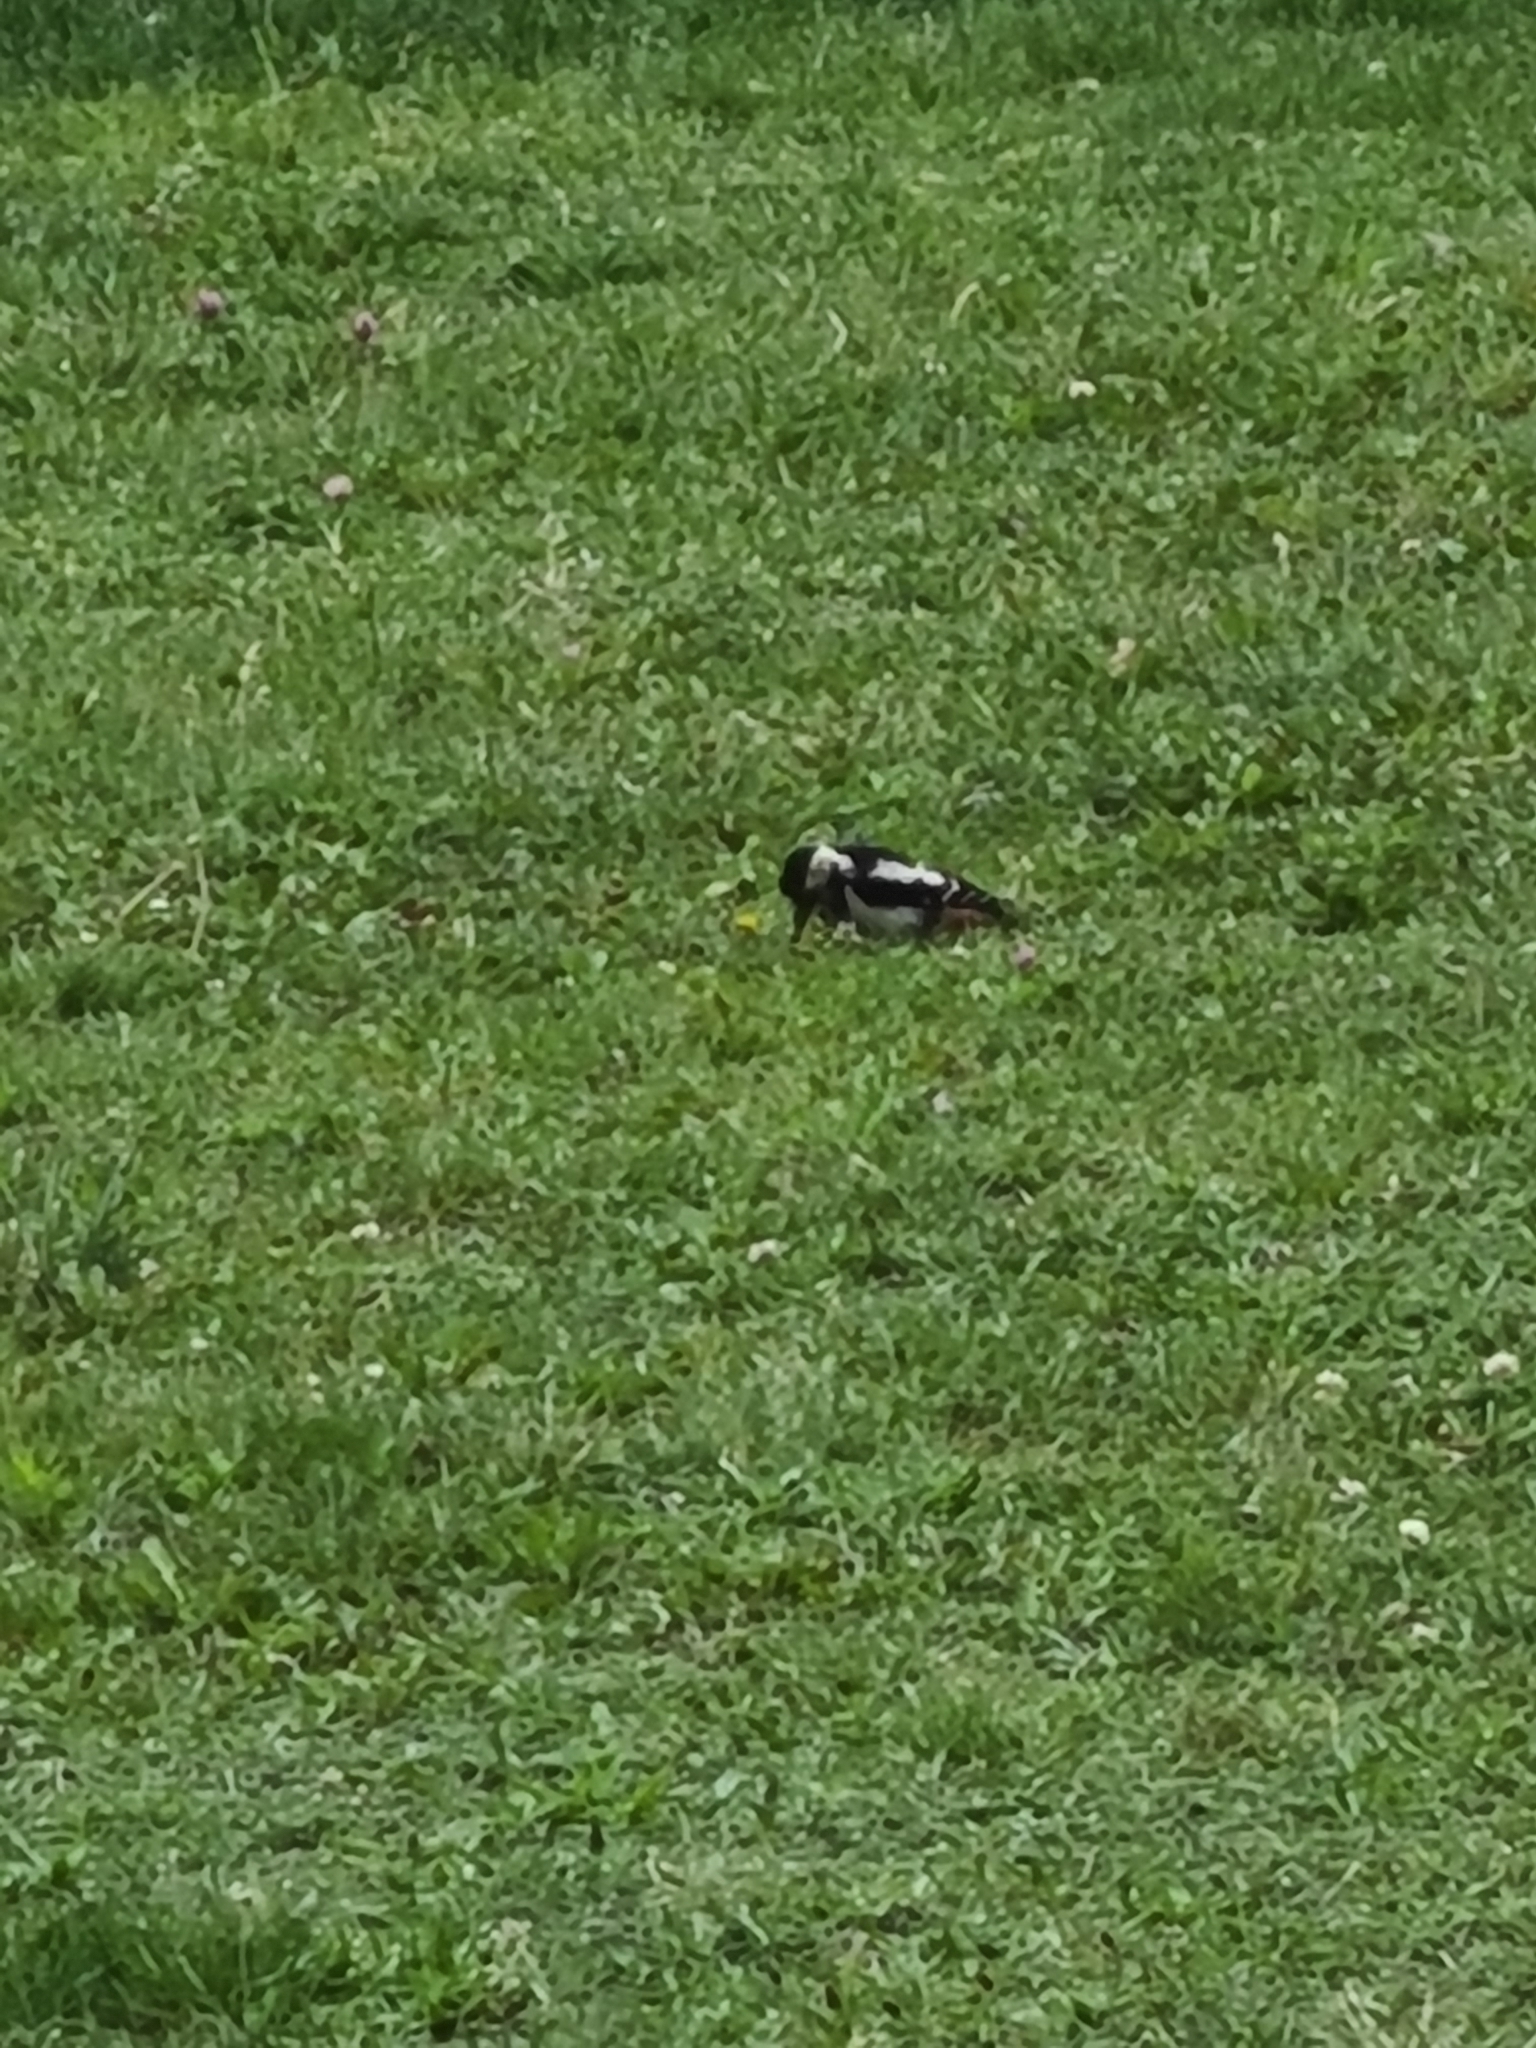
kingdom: Animalia
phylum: Chordata
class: Aves
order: Piciformes
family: Picidae
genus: Dendrocopos
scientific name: Dendrocopos syriacus
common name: Syrian woodpecker
